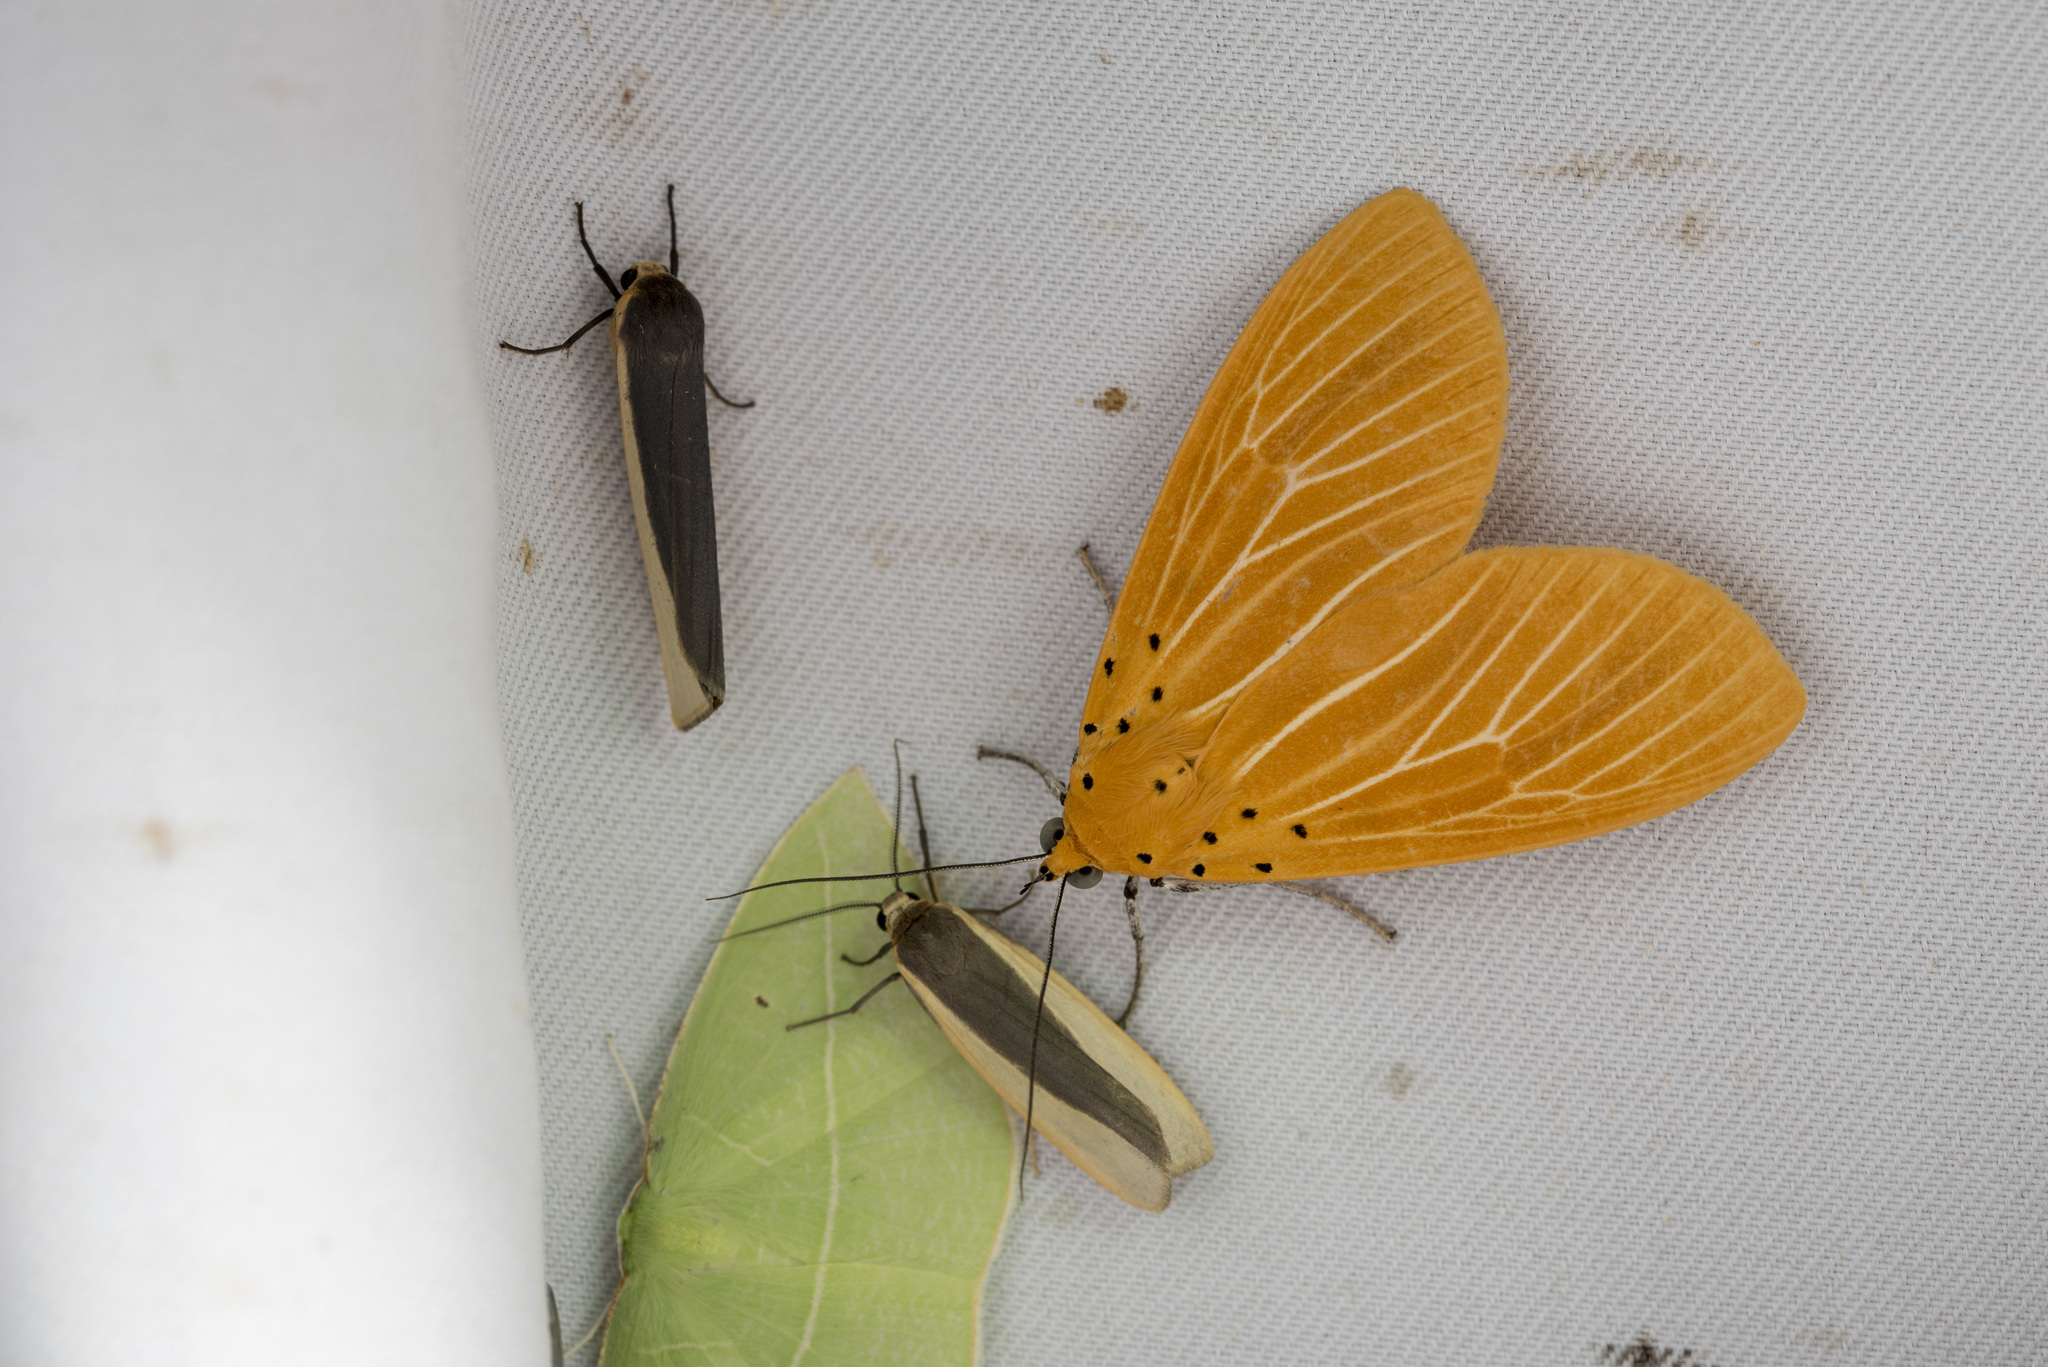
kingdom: Animalia
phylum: Arthropoda
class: Insecta
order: Lepidoptera
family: Erebidae
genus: Asota
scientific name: Asota egens
